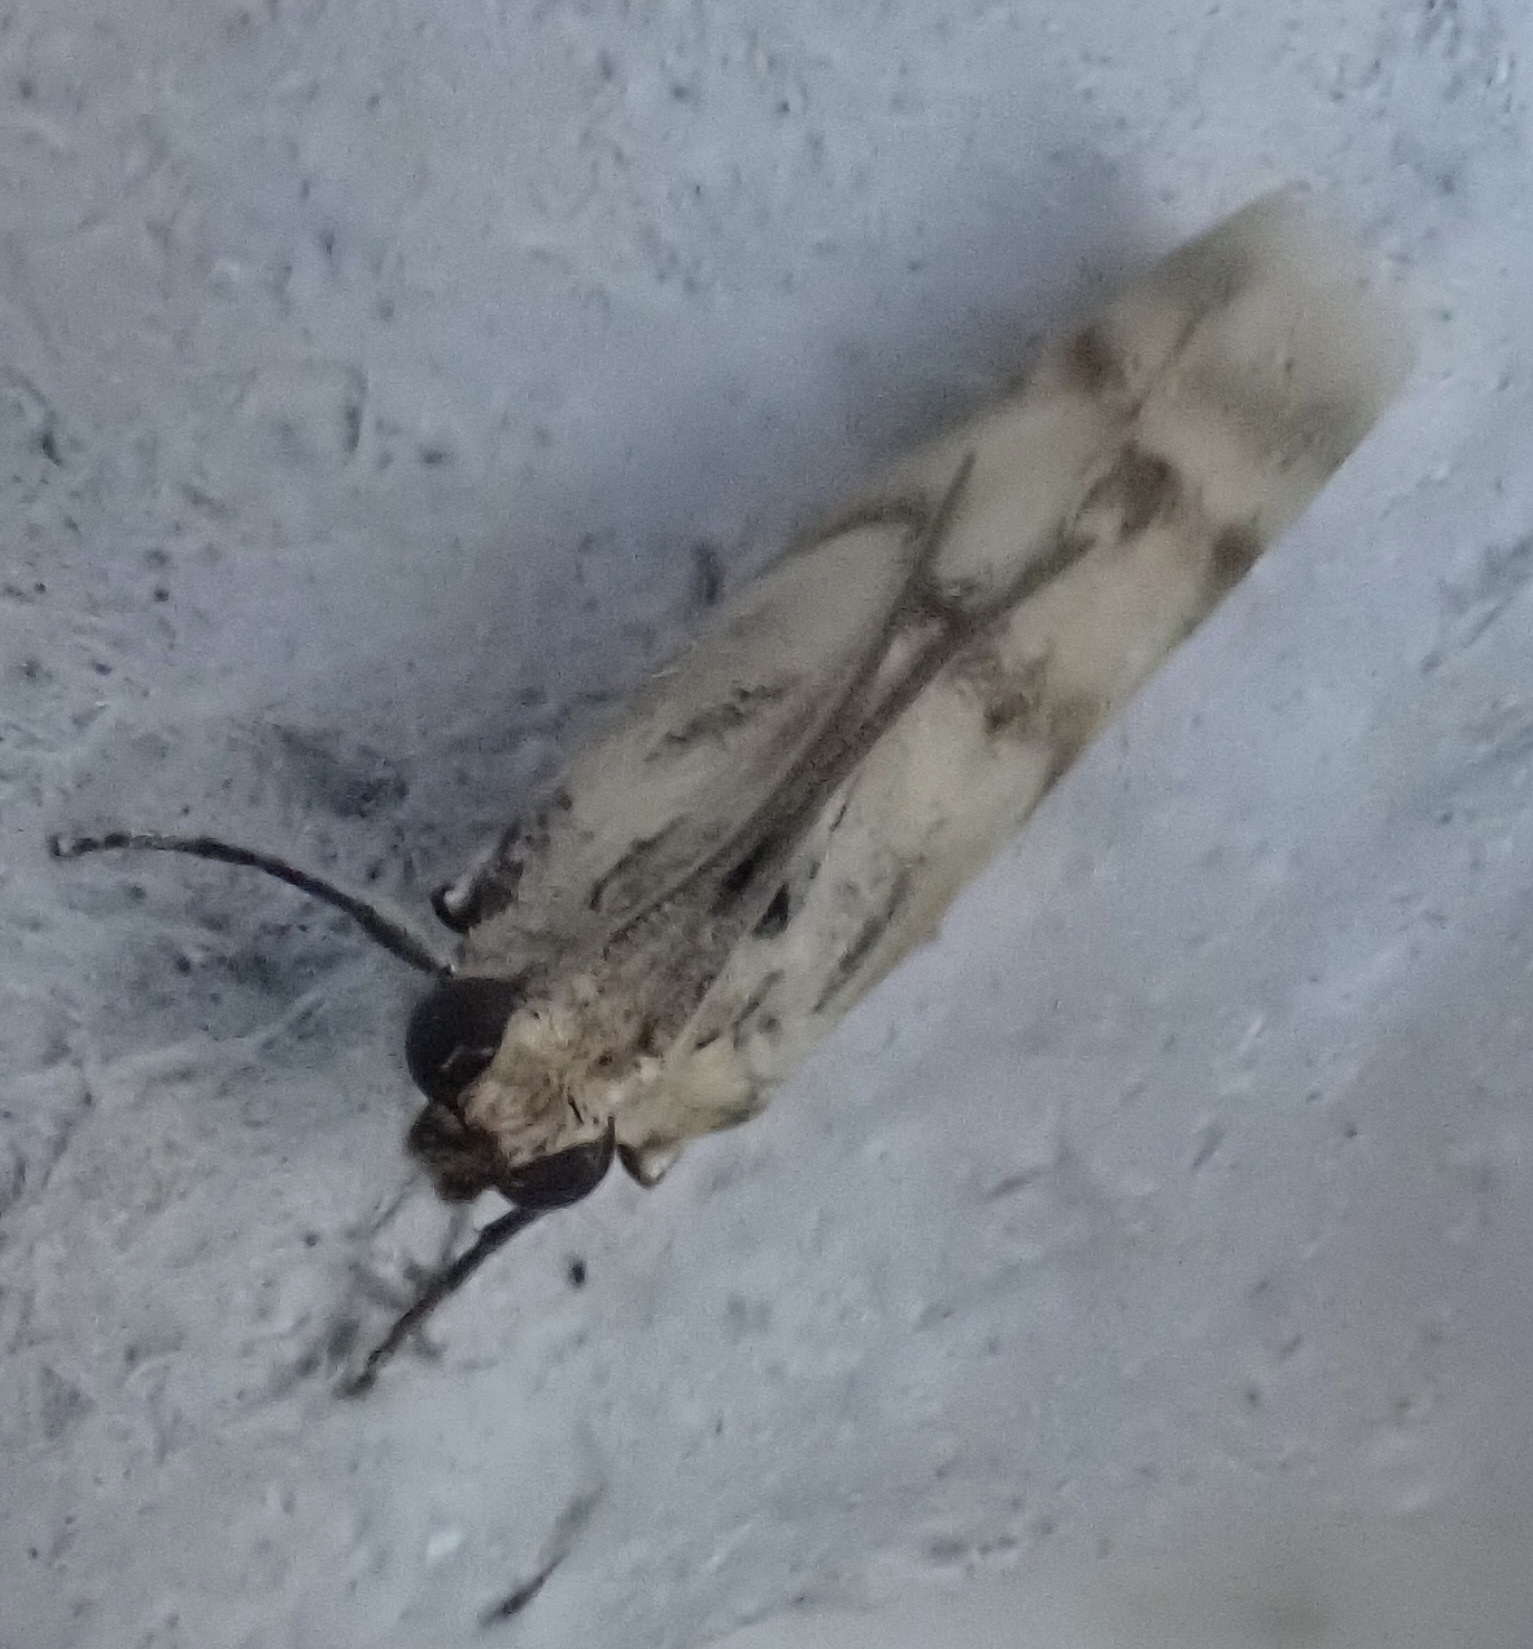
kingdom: Animalia
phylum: Arthropoda
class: Insecta
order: Lepidoptera
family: Pyralidae
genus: Homoeosoma
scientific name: Homoeosoma sinuella
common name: Twin-barred knot-horn
